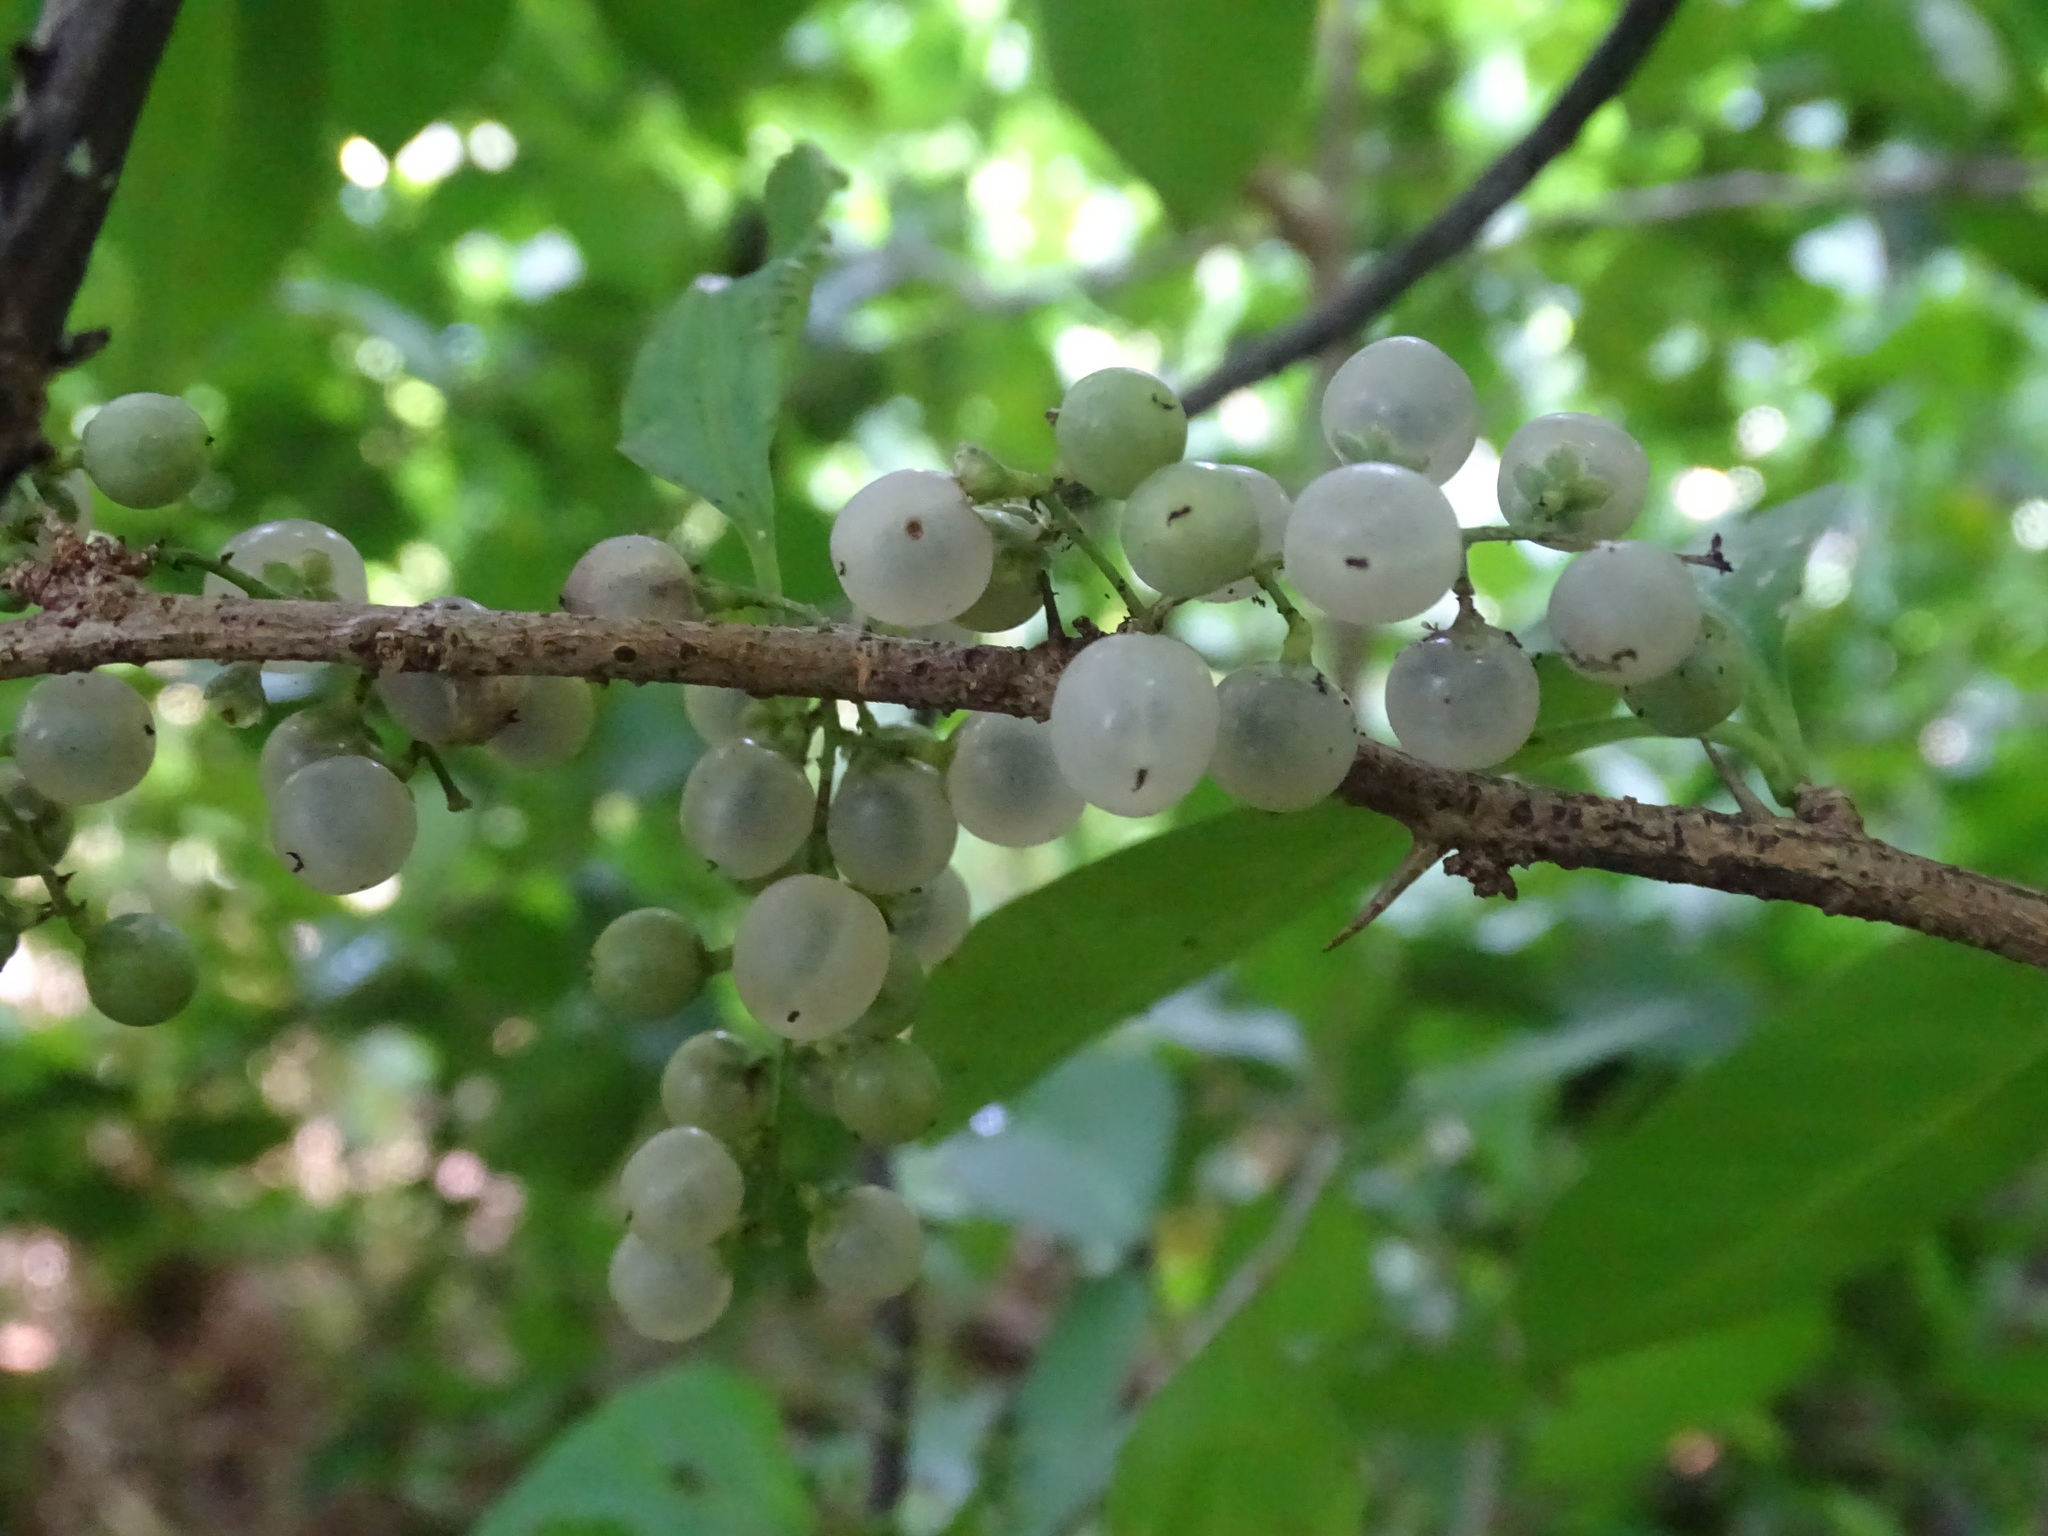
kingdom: Plantae
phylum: Tracheophyta
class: Magnoliopsida
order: Caryophyllales
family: Achatocarpaceae
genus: Achatocarpus
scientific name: Achatocarpus nigricans
